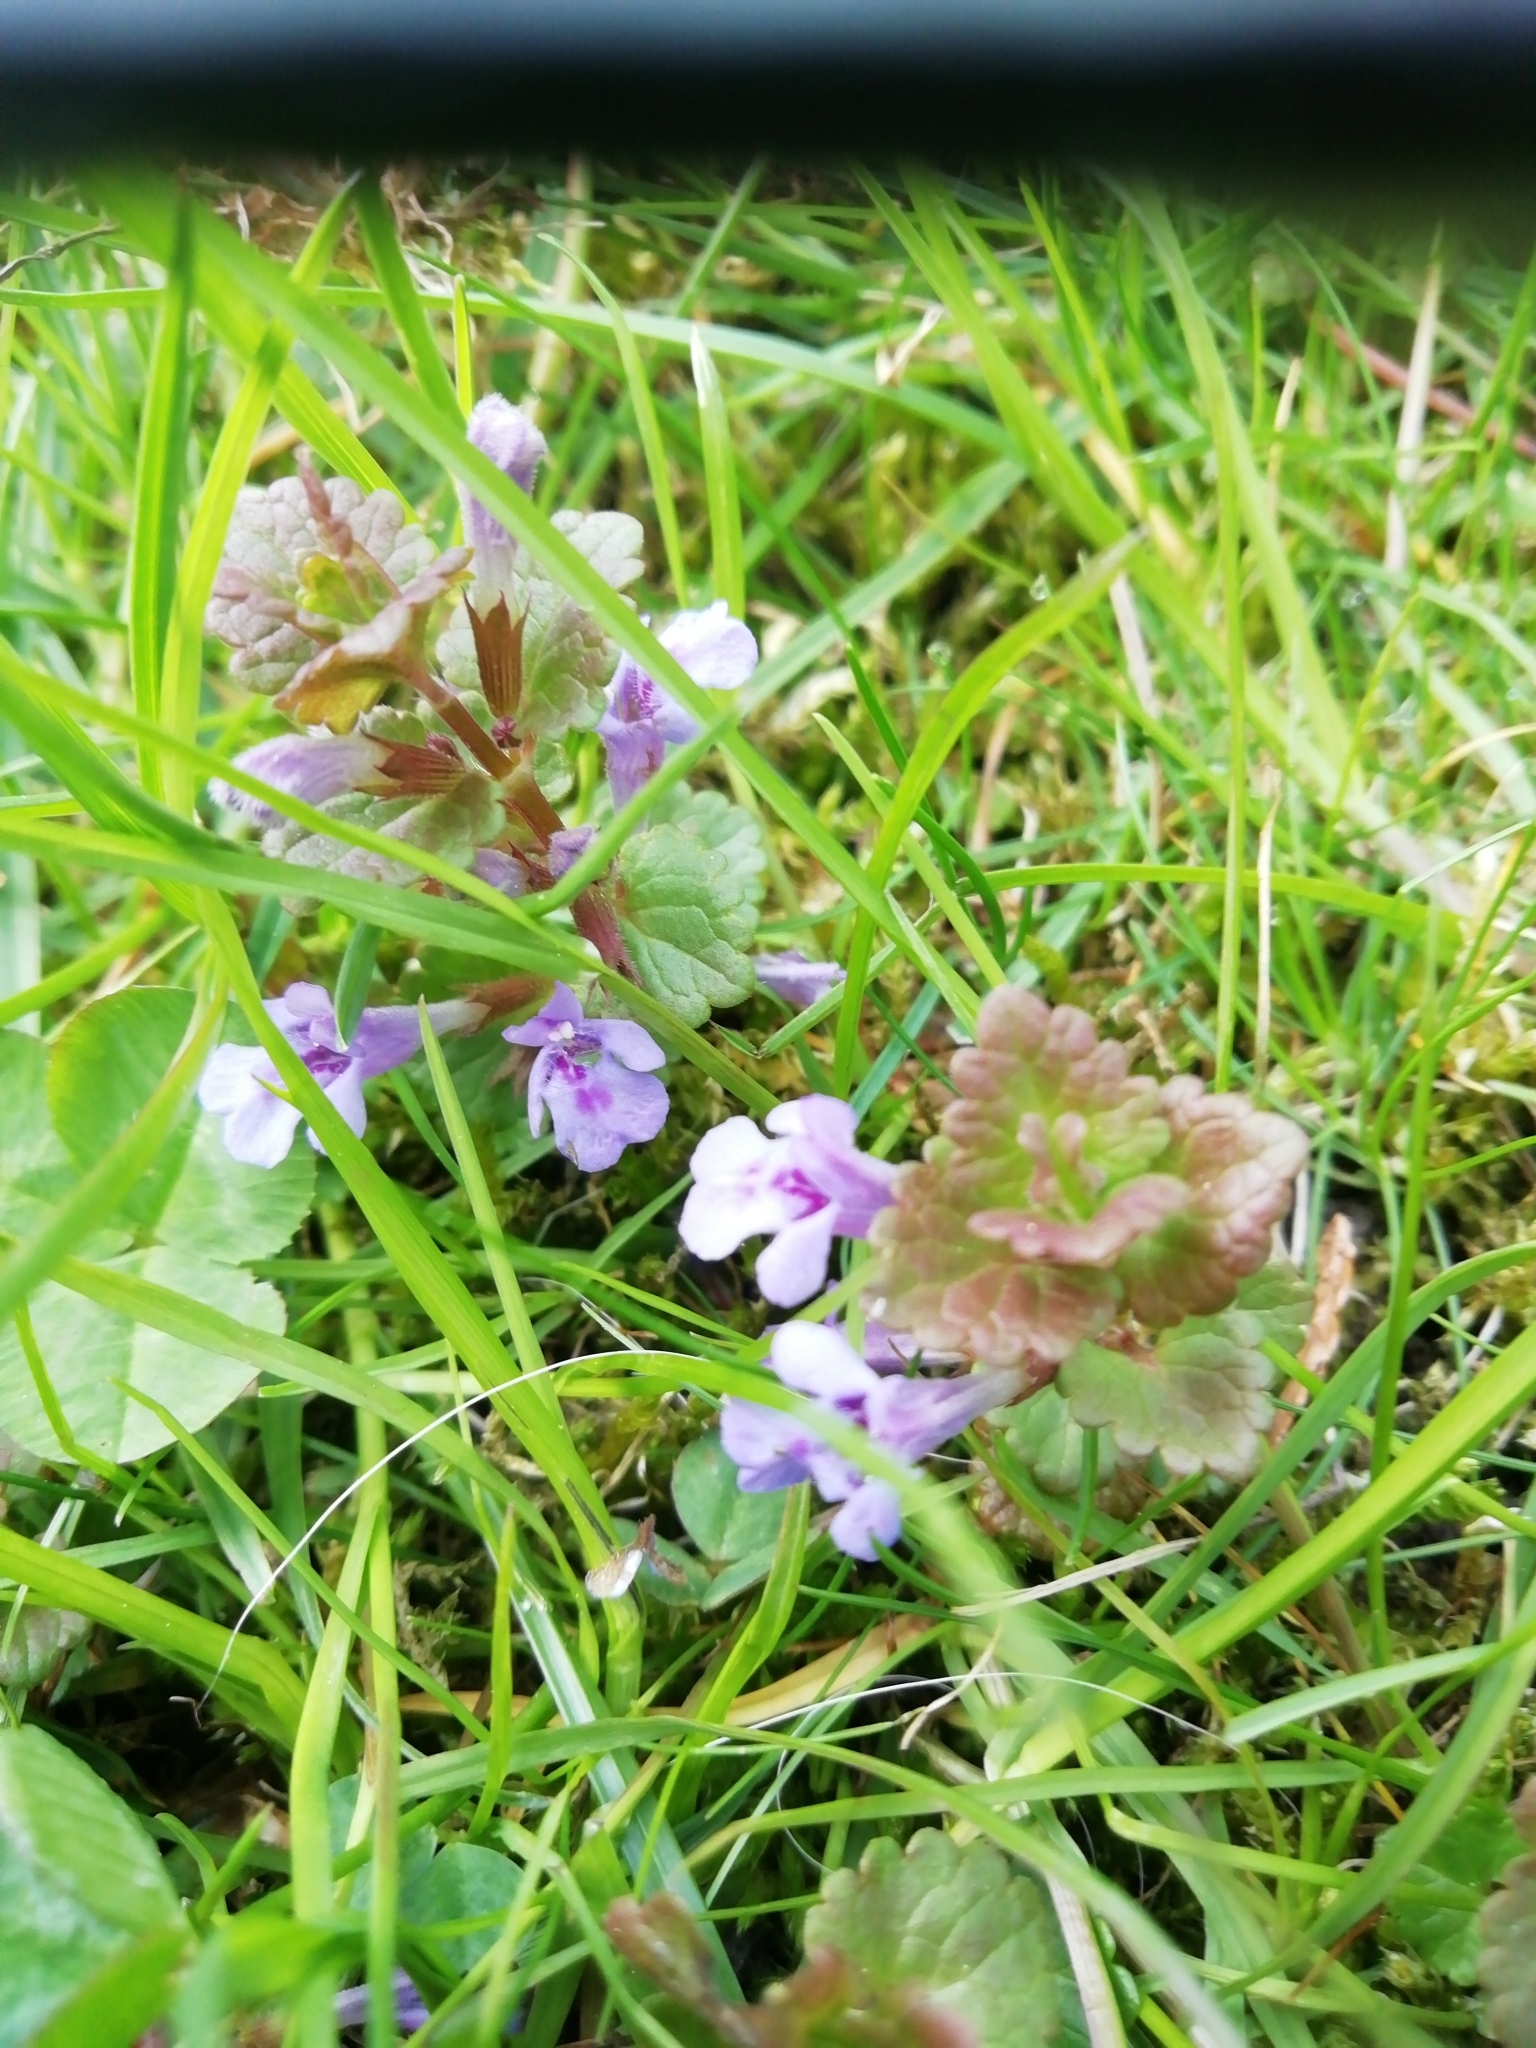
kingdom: Plantae
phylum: Tracheophyta
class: Magnoliopsida
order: Lamiales
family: Lamiaceae
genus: Glechoma
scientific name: Glechoma hederacea
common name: Ground ivy
